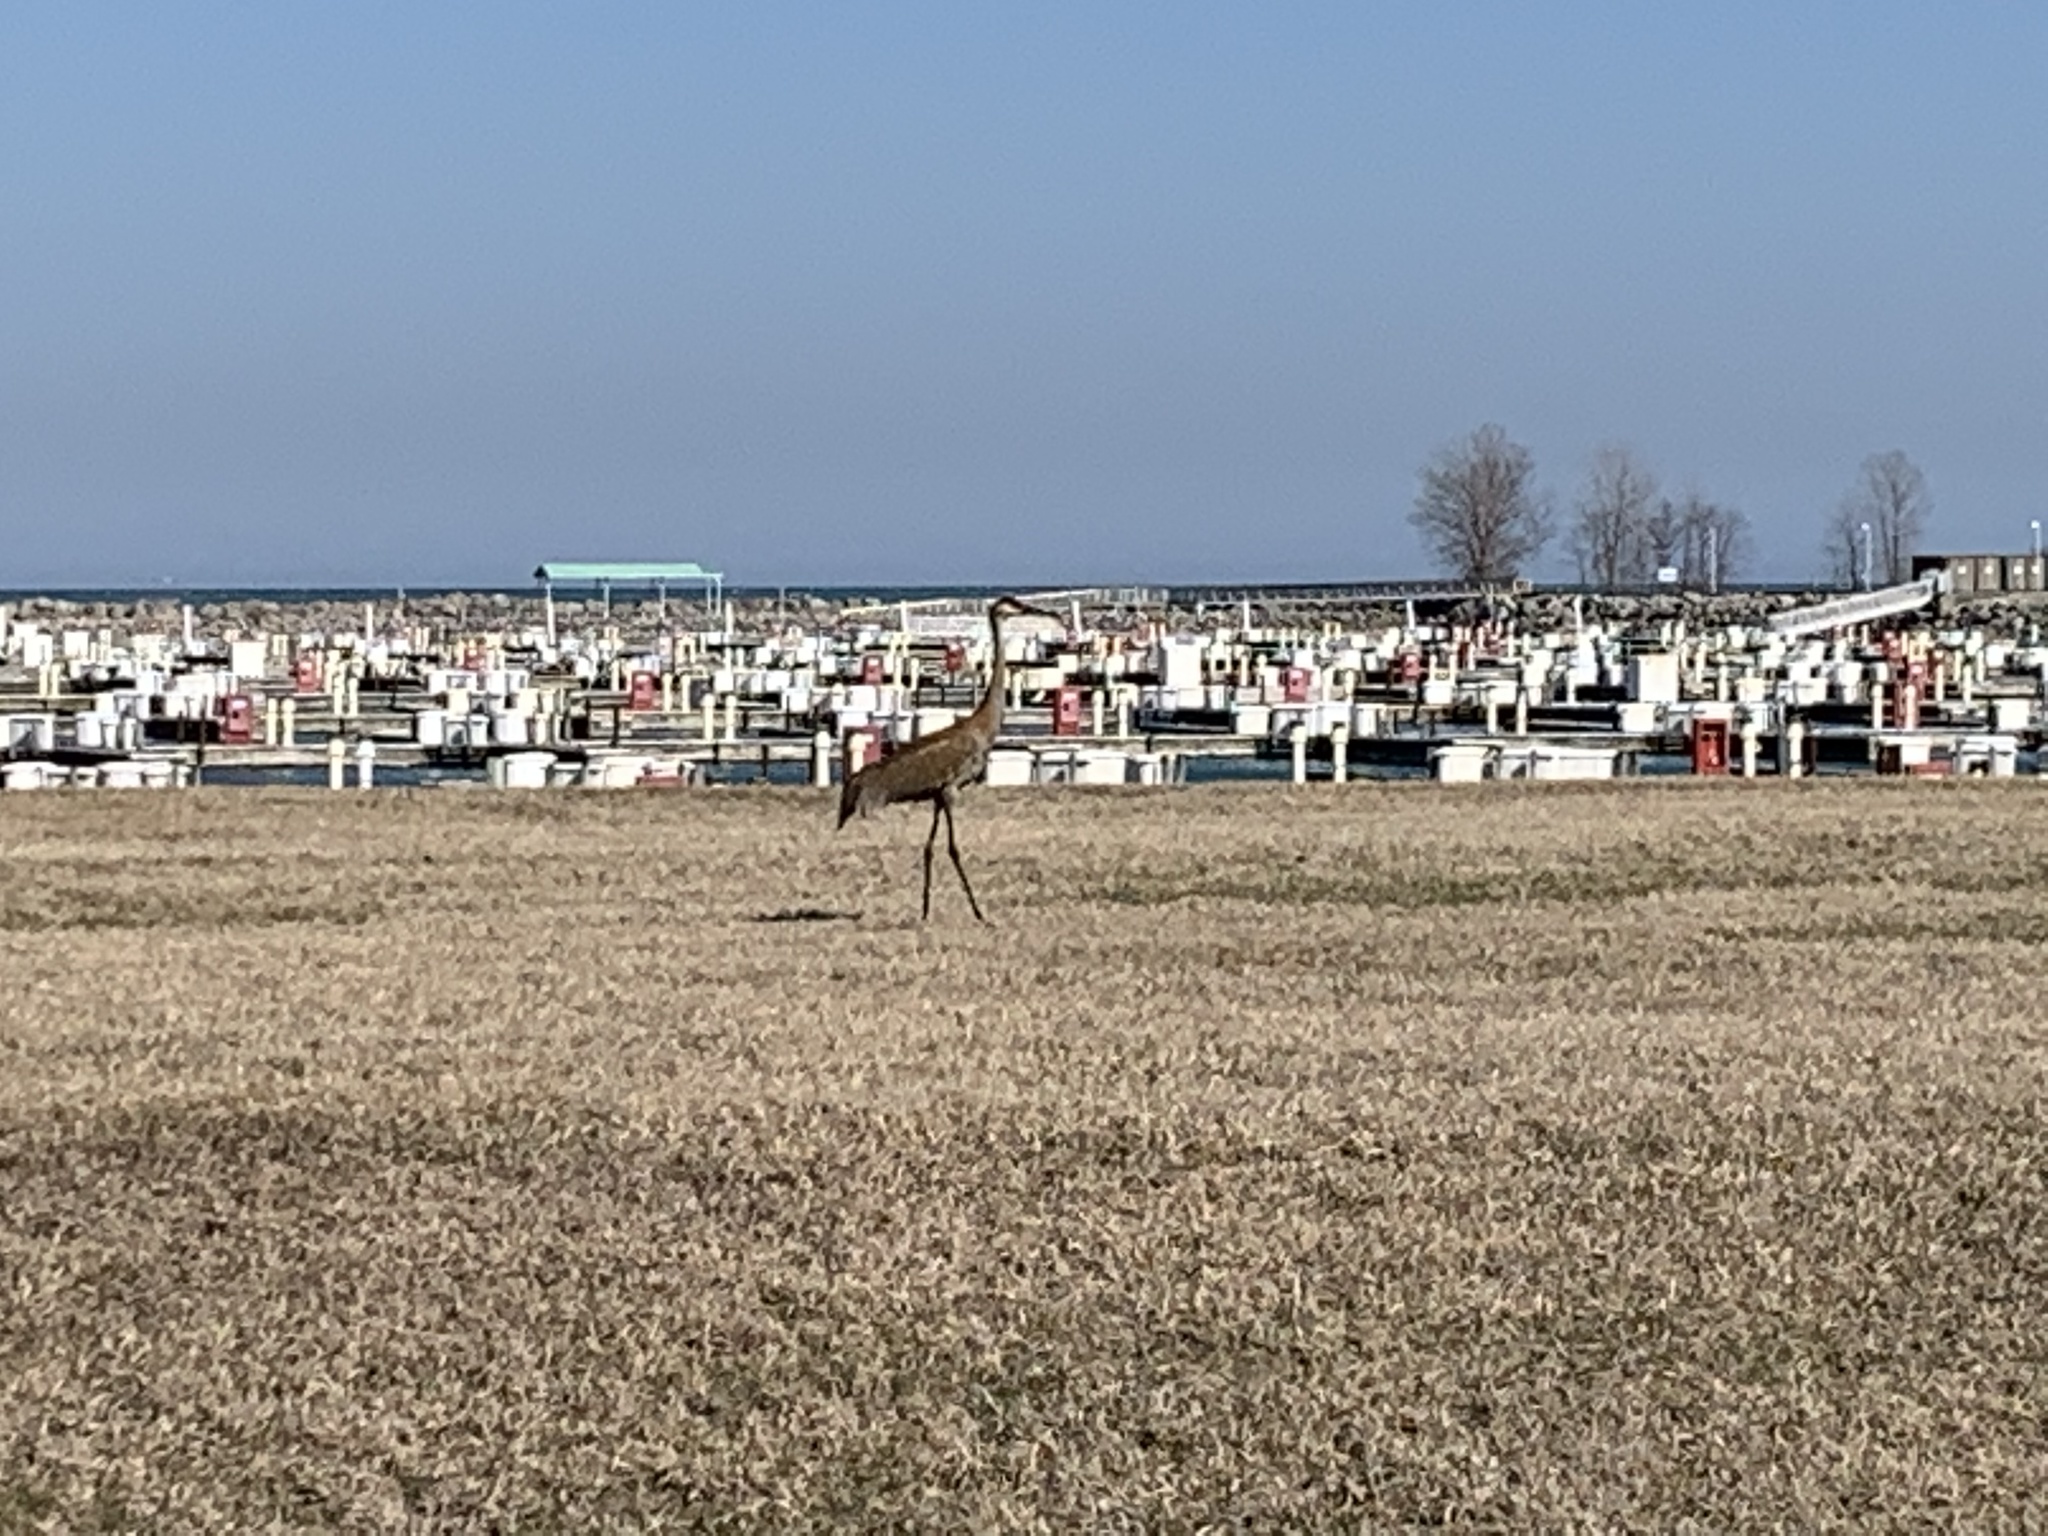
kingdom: Animalia
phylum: Chordata
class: Aves
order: Gruiformes
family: Gruidae
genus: Grus
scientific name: Grus canadensis
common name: Sandhill crane
